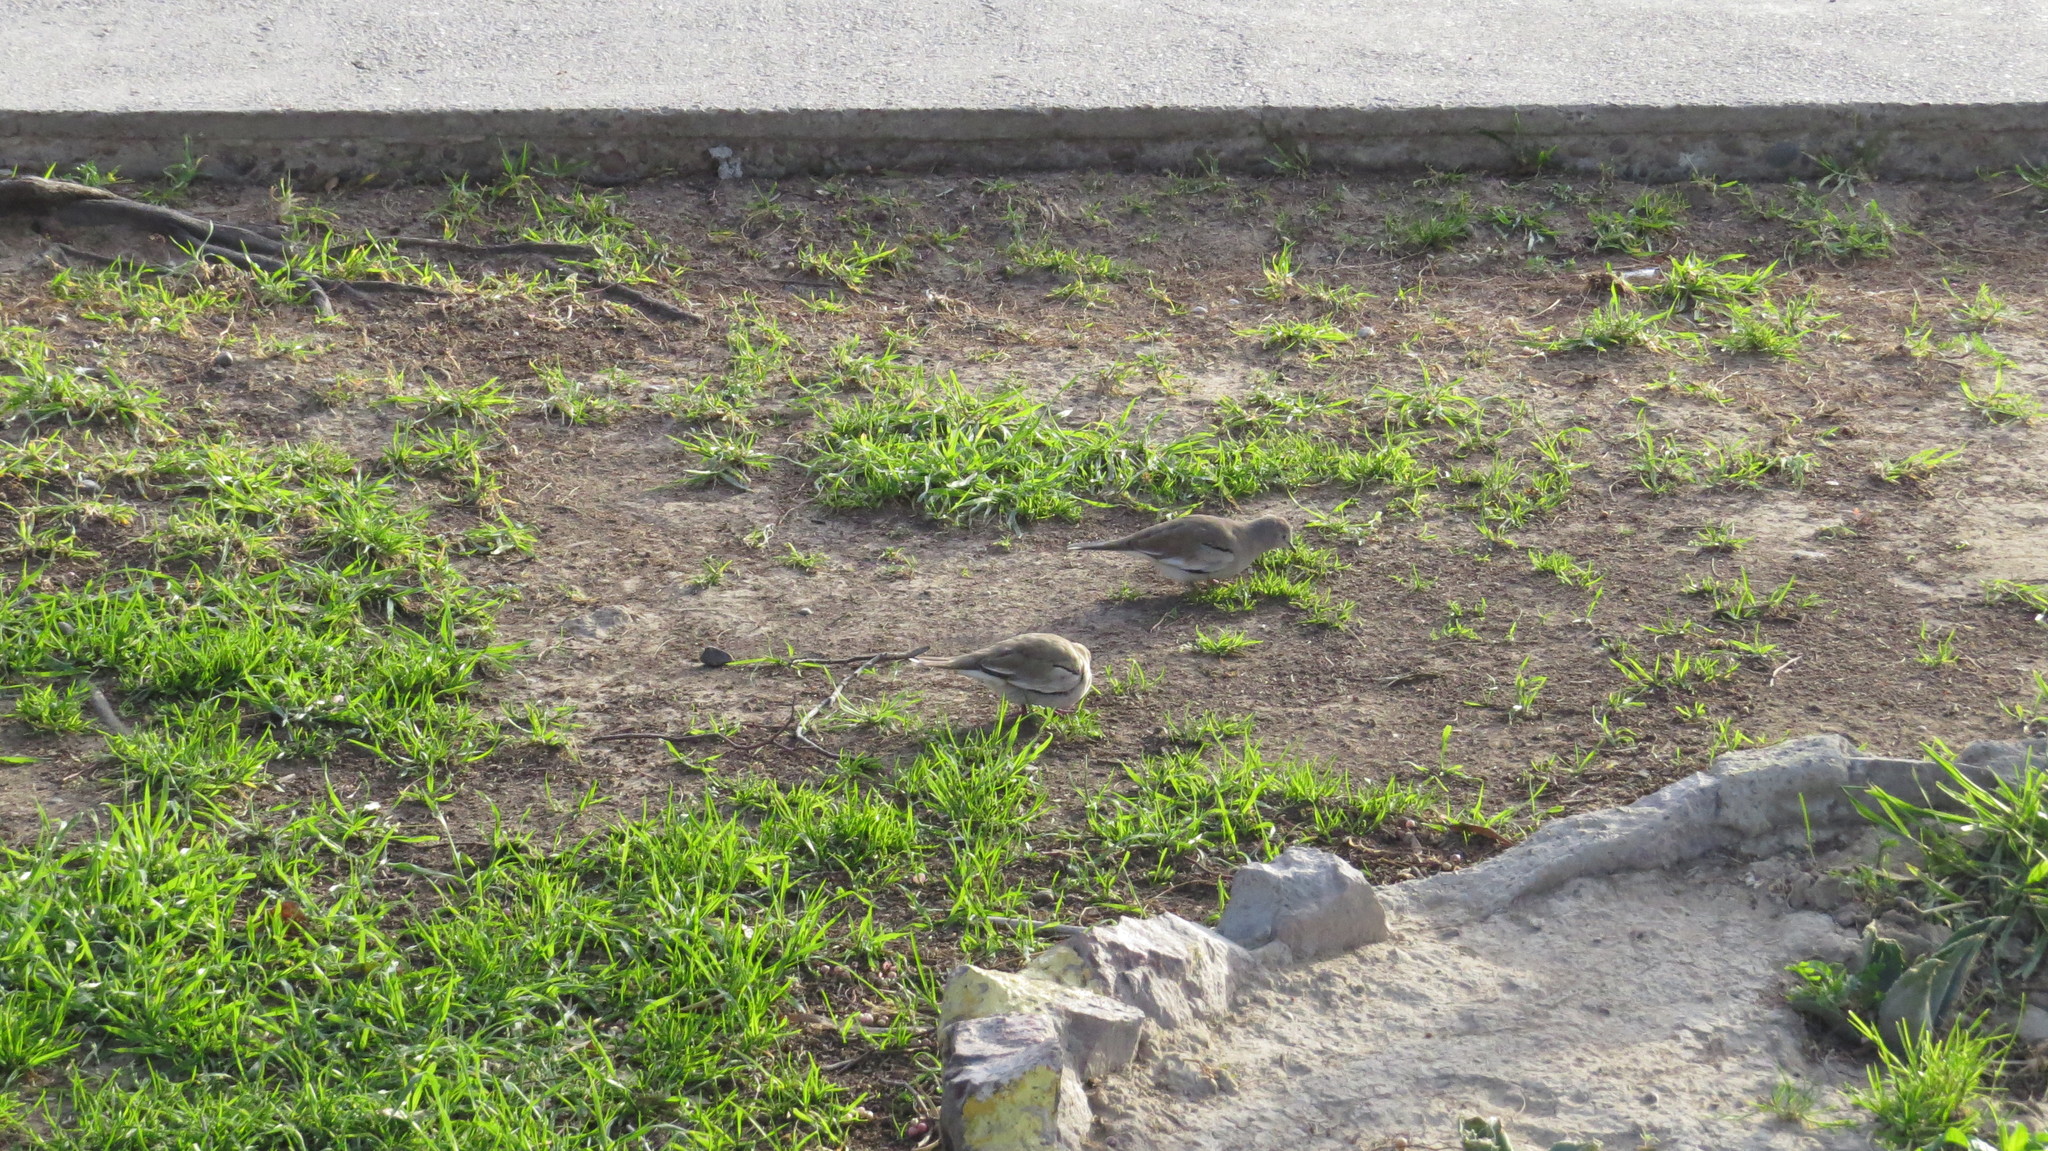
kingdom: Animalia
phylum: Chordata
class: Aves
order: Columbiformes
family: Columbidae
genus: Columbina
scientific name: Columbina picui
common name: Picui ground dove
